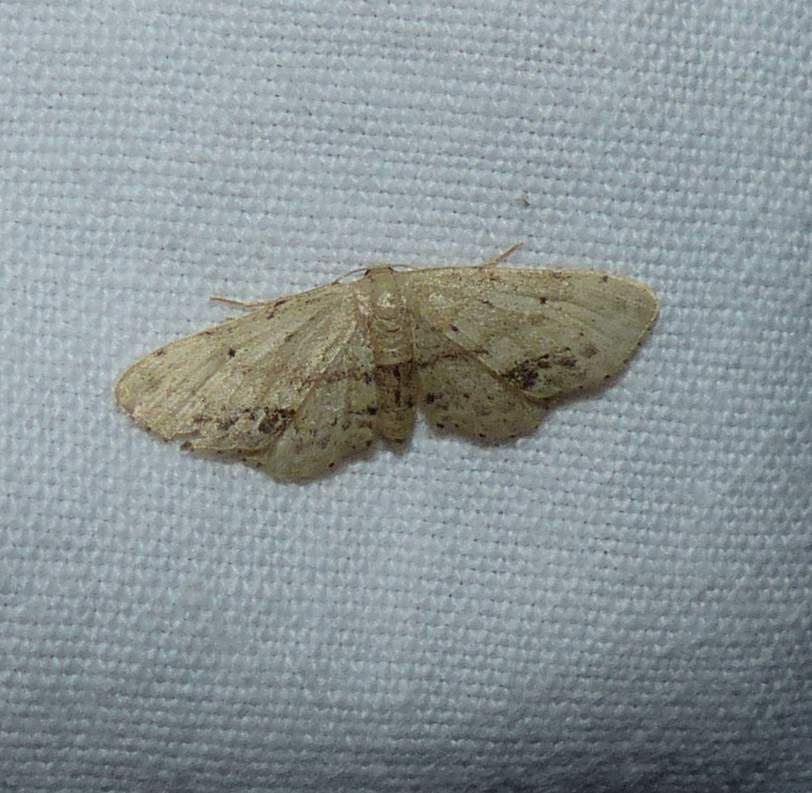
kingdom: Animalia
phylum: Arthropoda
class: Insecta
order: Lepidoptera
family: Geometridae
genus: Idaea
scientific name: Idaea dimidiata
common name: Single-dotted wave
